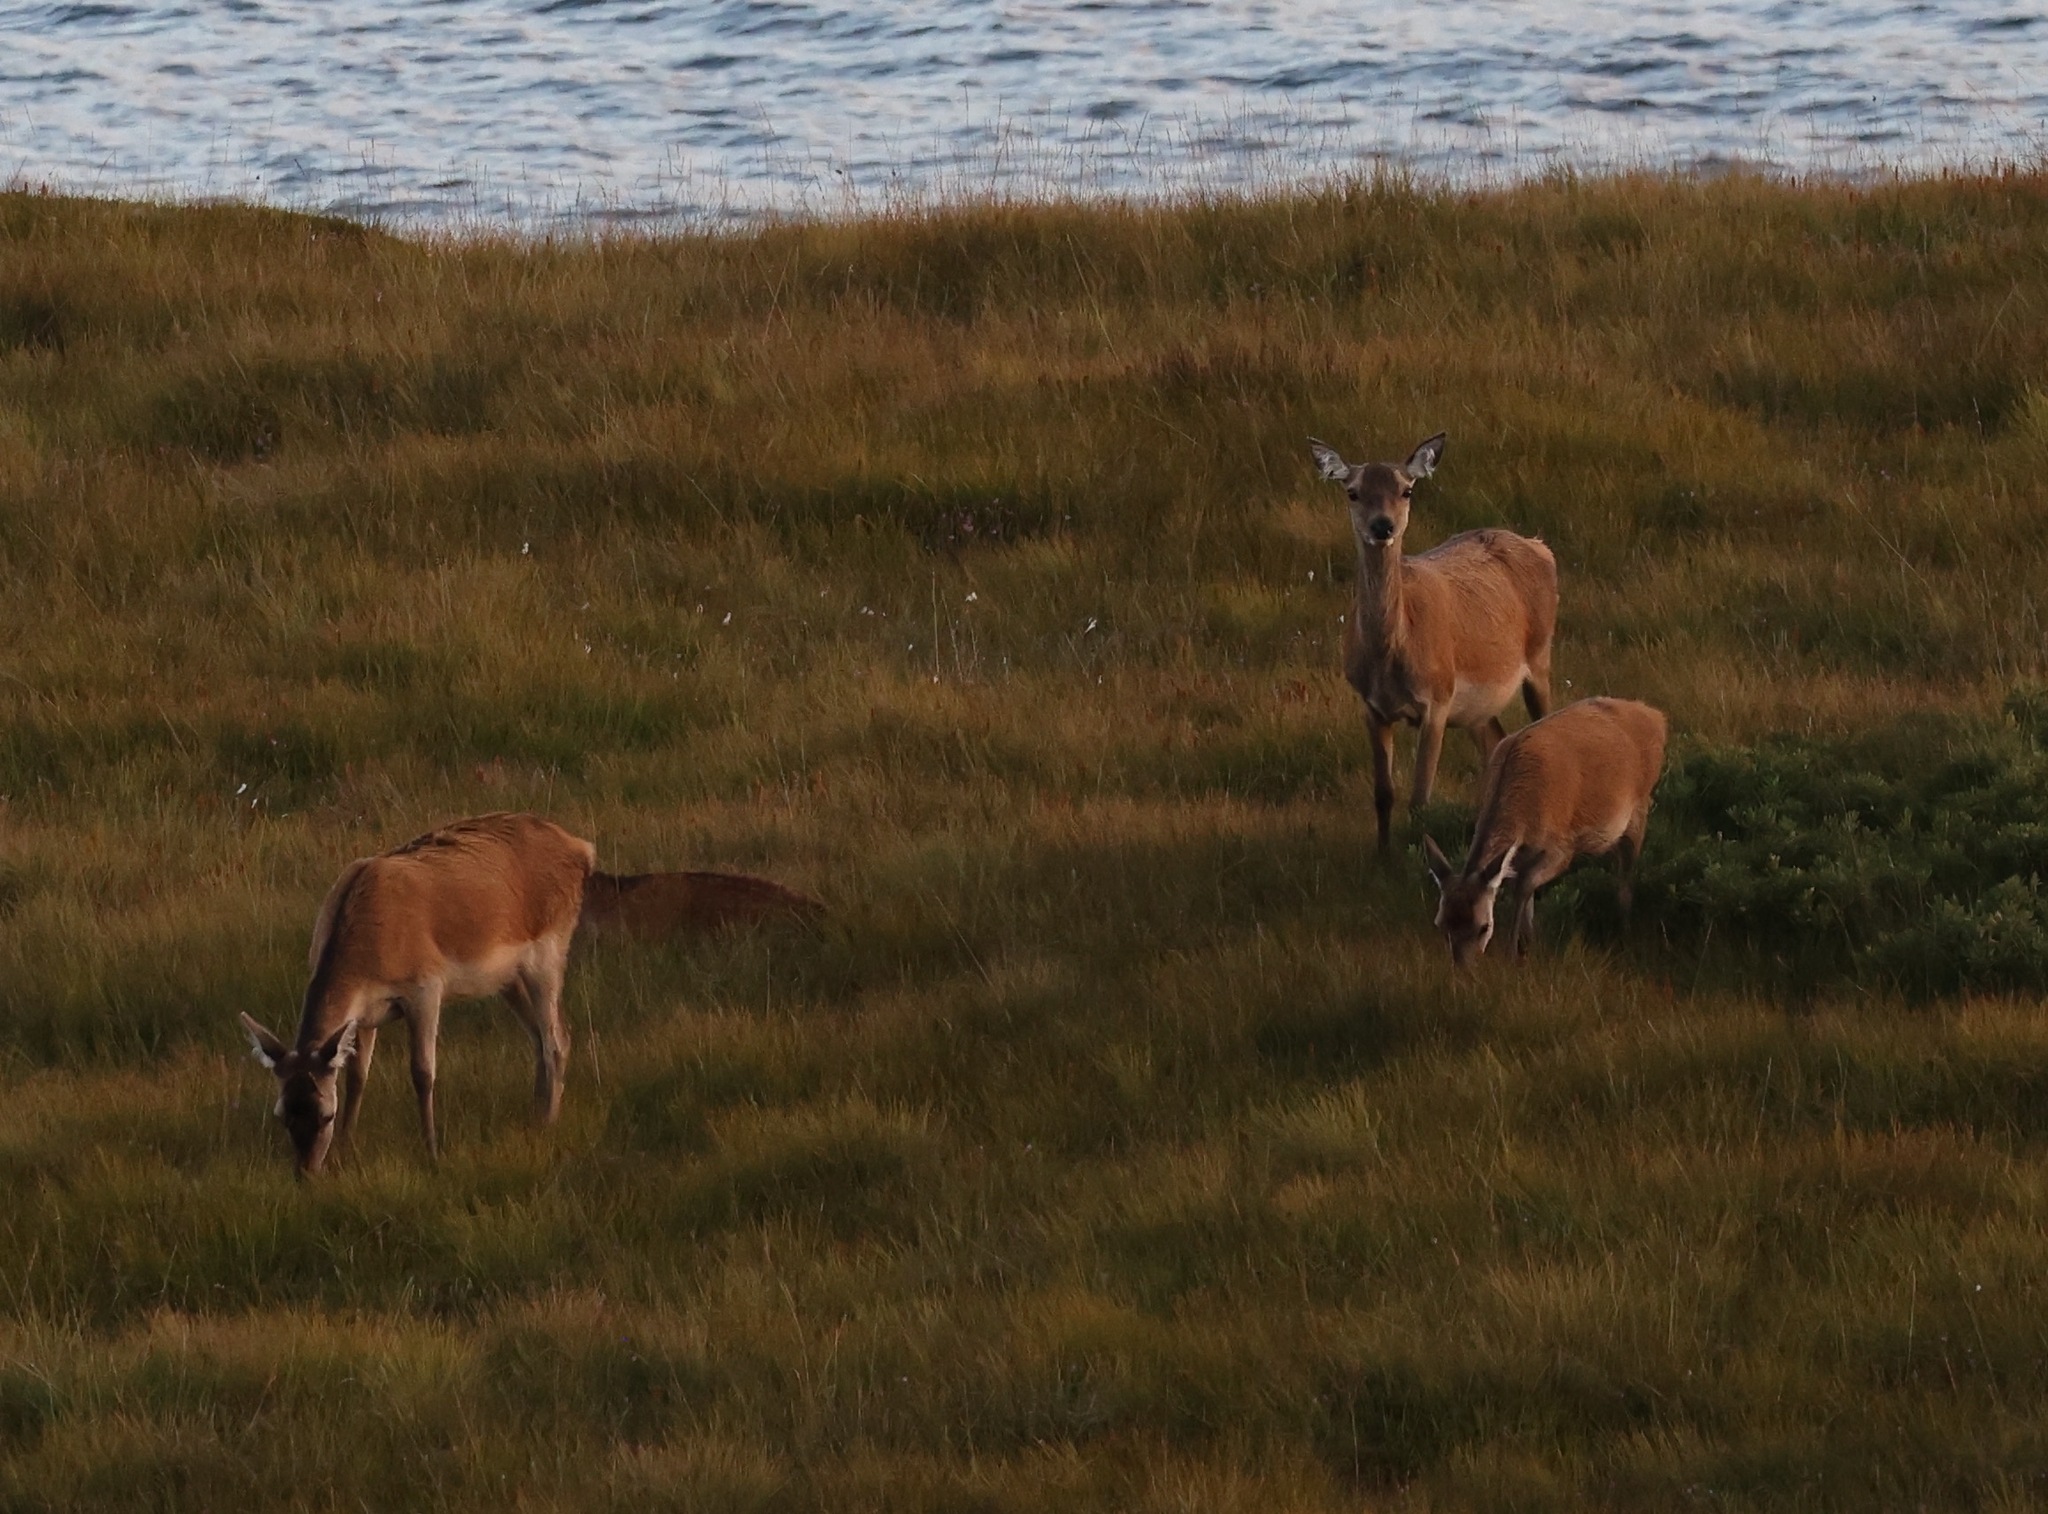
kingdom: Animalia
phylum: Chordata
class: Mammalia
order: Artiodactyla
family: Cervidae
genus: Cervus
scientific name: Cervus elaphus
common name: Red deer
